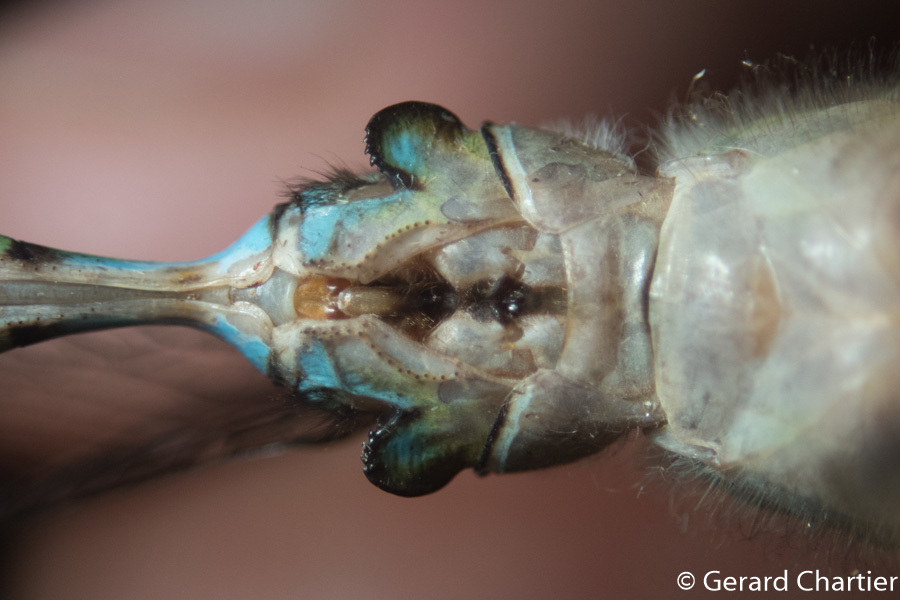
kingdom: Animalia
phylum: Arthropoda
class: Insecta
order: Odonata
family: Aeshnidae
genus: Gynacantha
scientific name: Gynacantha demeter
